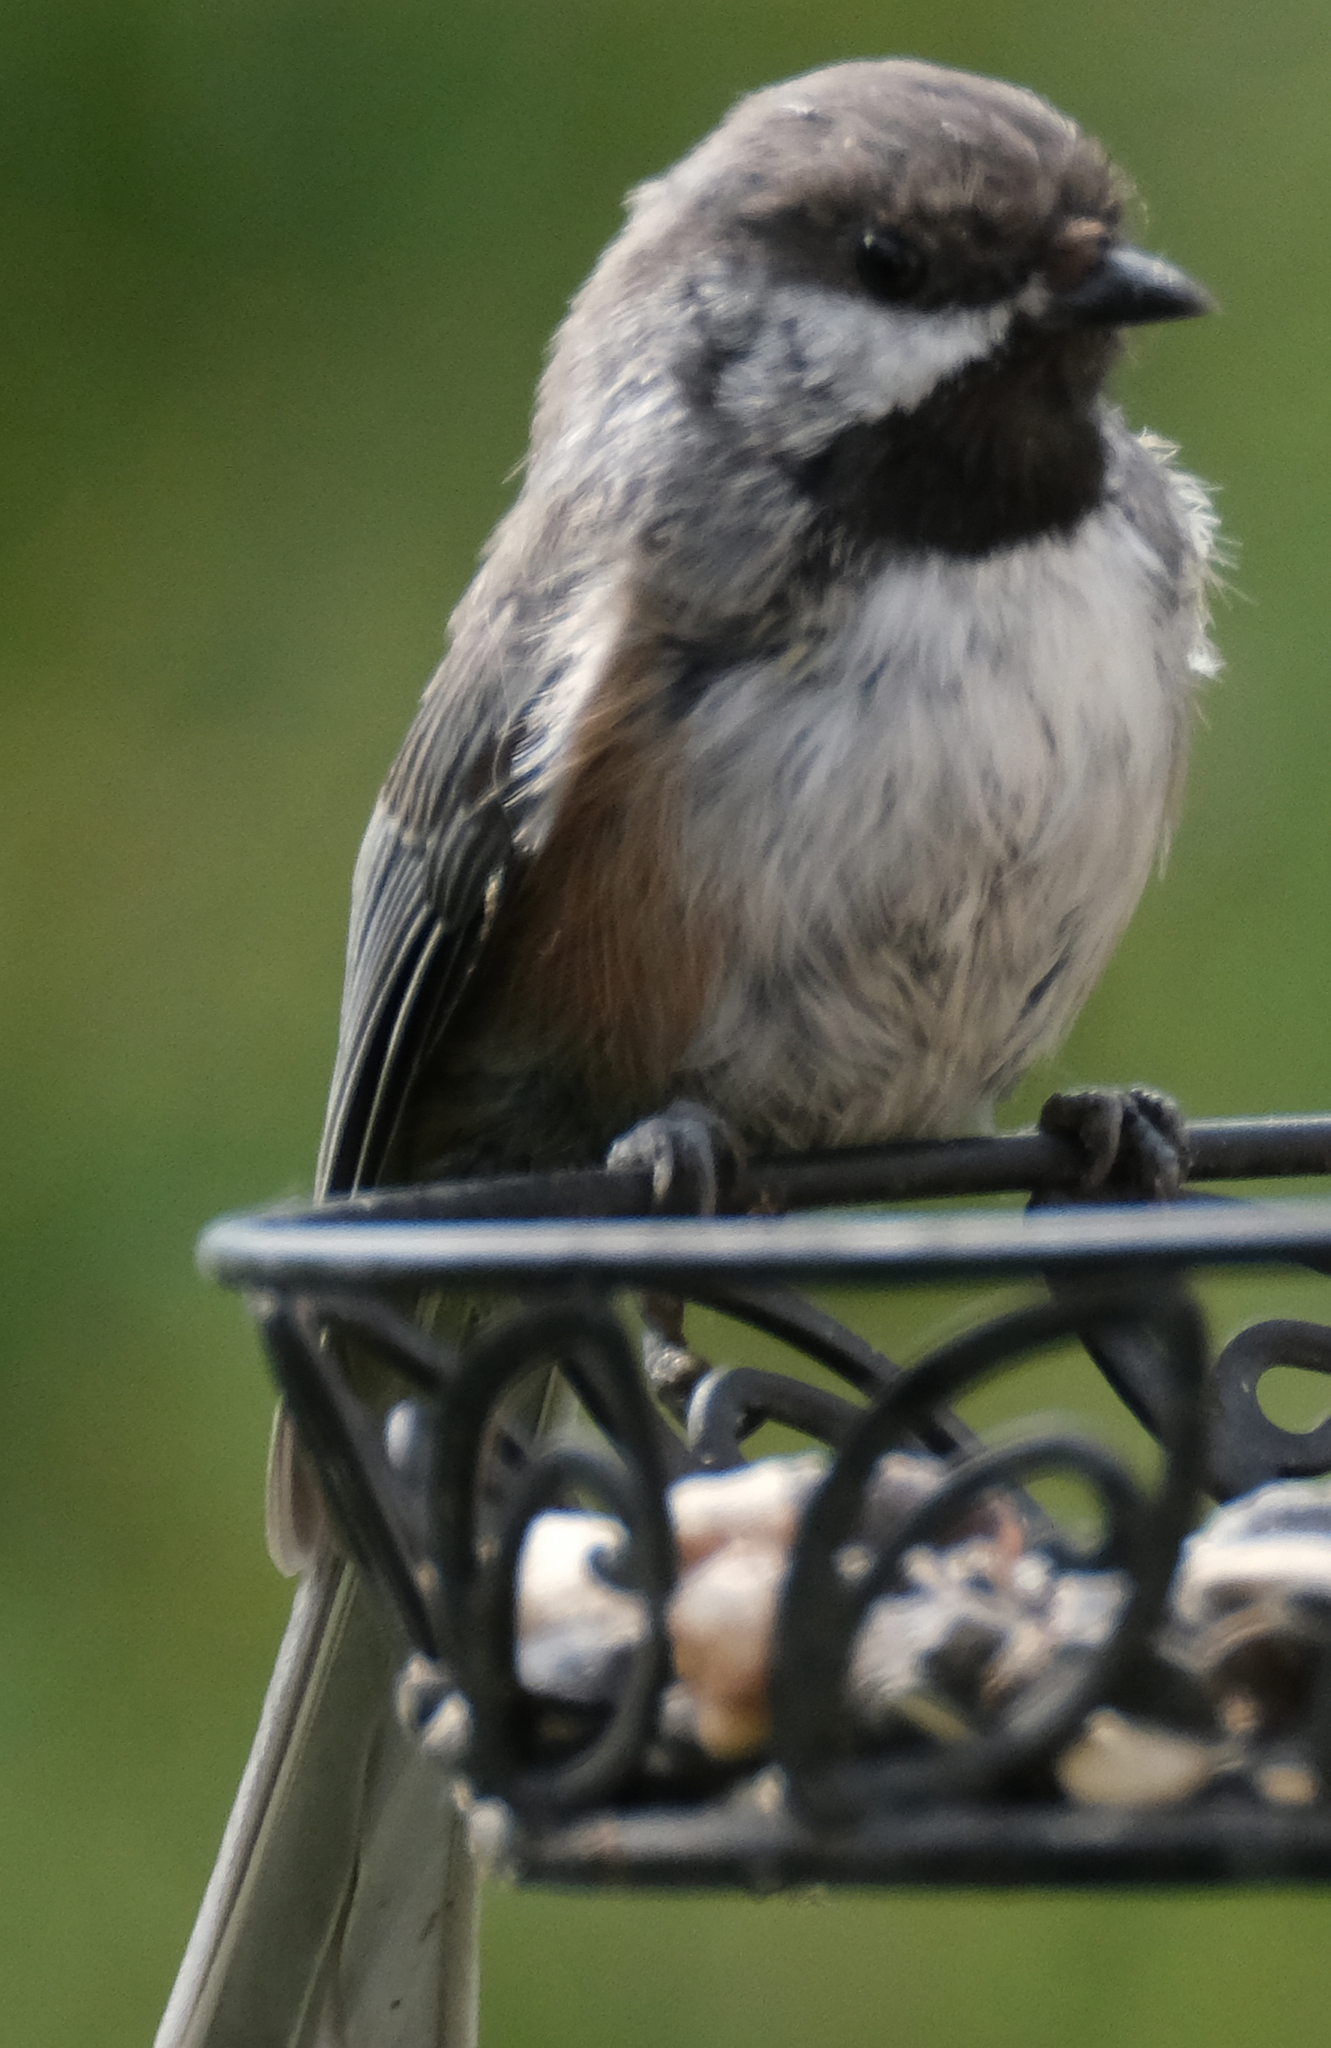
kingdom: Animalia
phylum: Chordata
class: Aves
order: Passeriformes
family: Paridae
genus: Poecile
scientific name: Poecile hudsonicus
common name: Boreal chickadee
